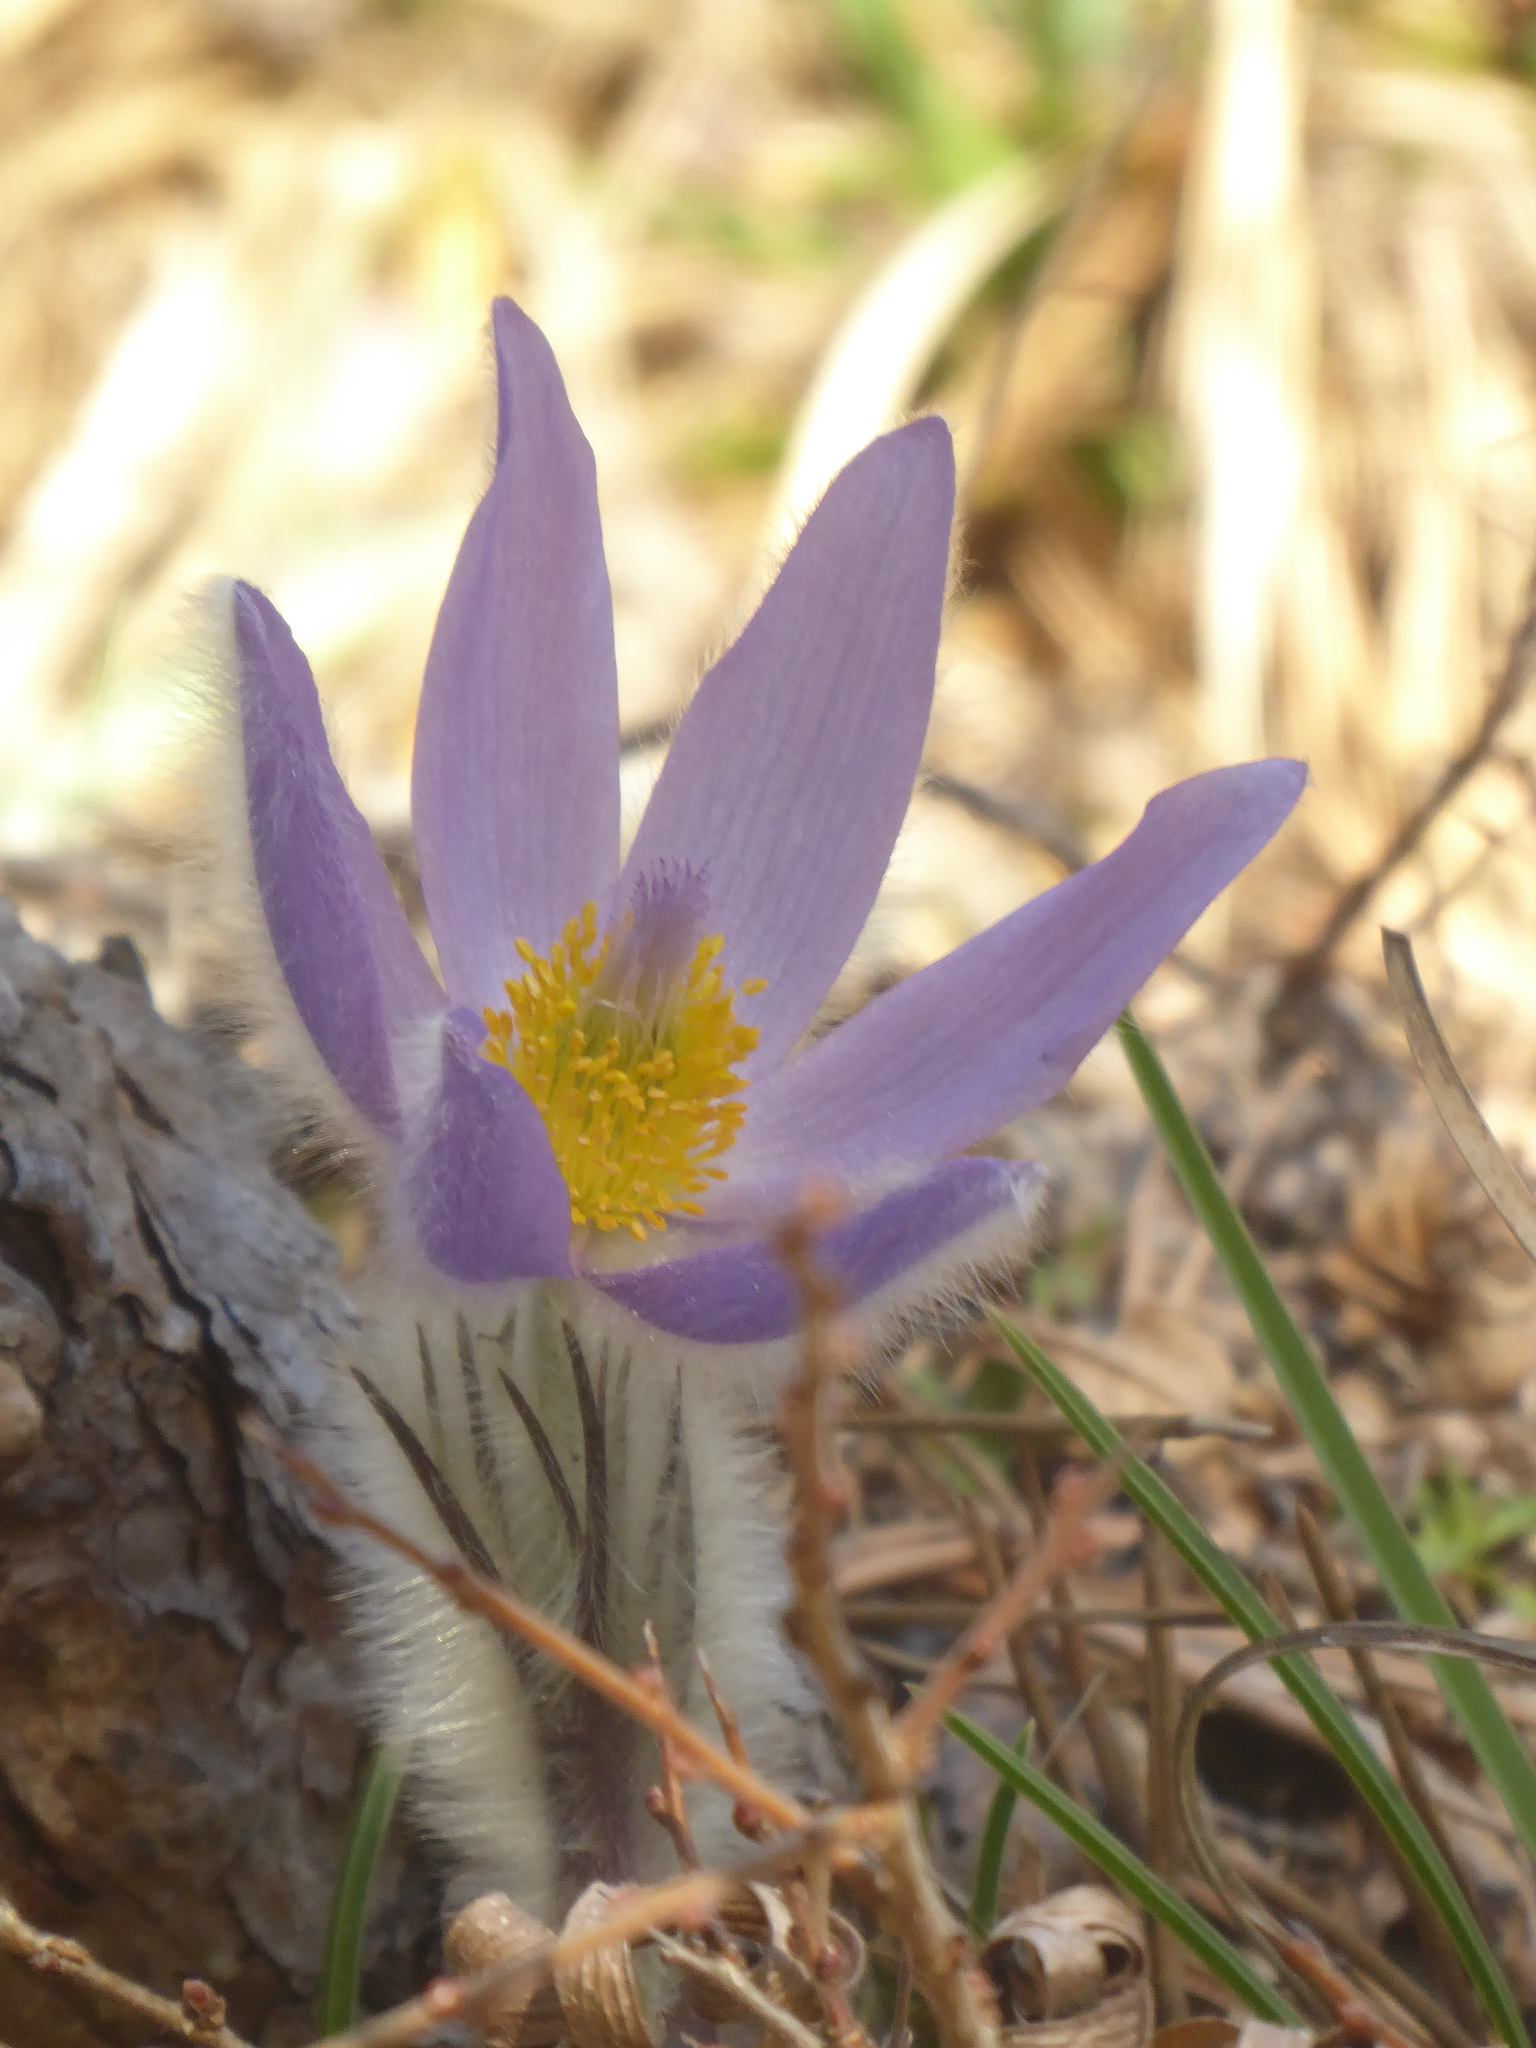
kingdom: Plantae
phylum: Tracheophyta
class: Magnoliopsida
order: Ranunculales
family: Ranunculaceae
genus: Pulsatilla
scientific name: Pulsatilla grandis
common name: Greater pasque flower
